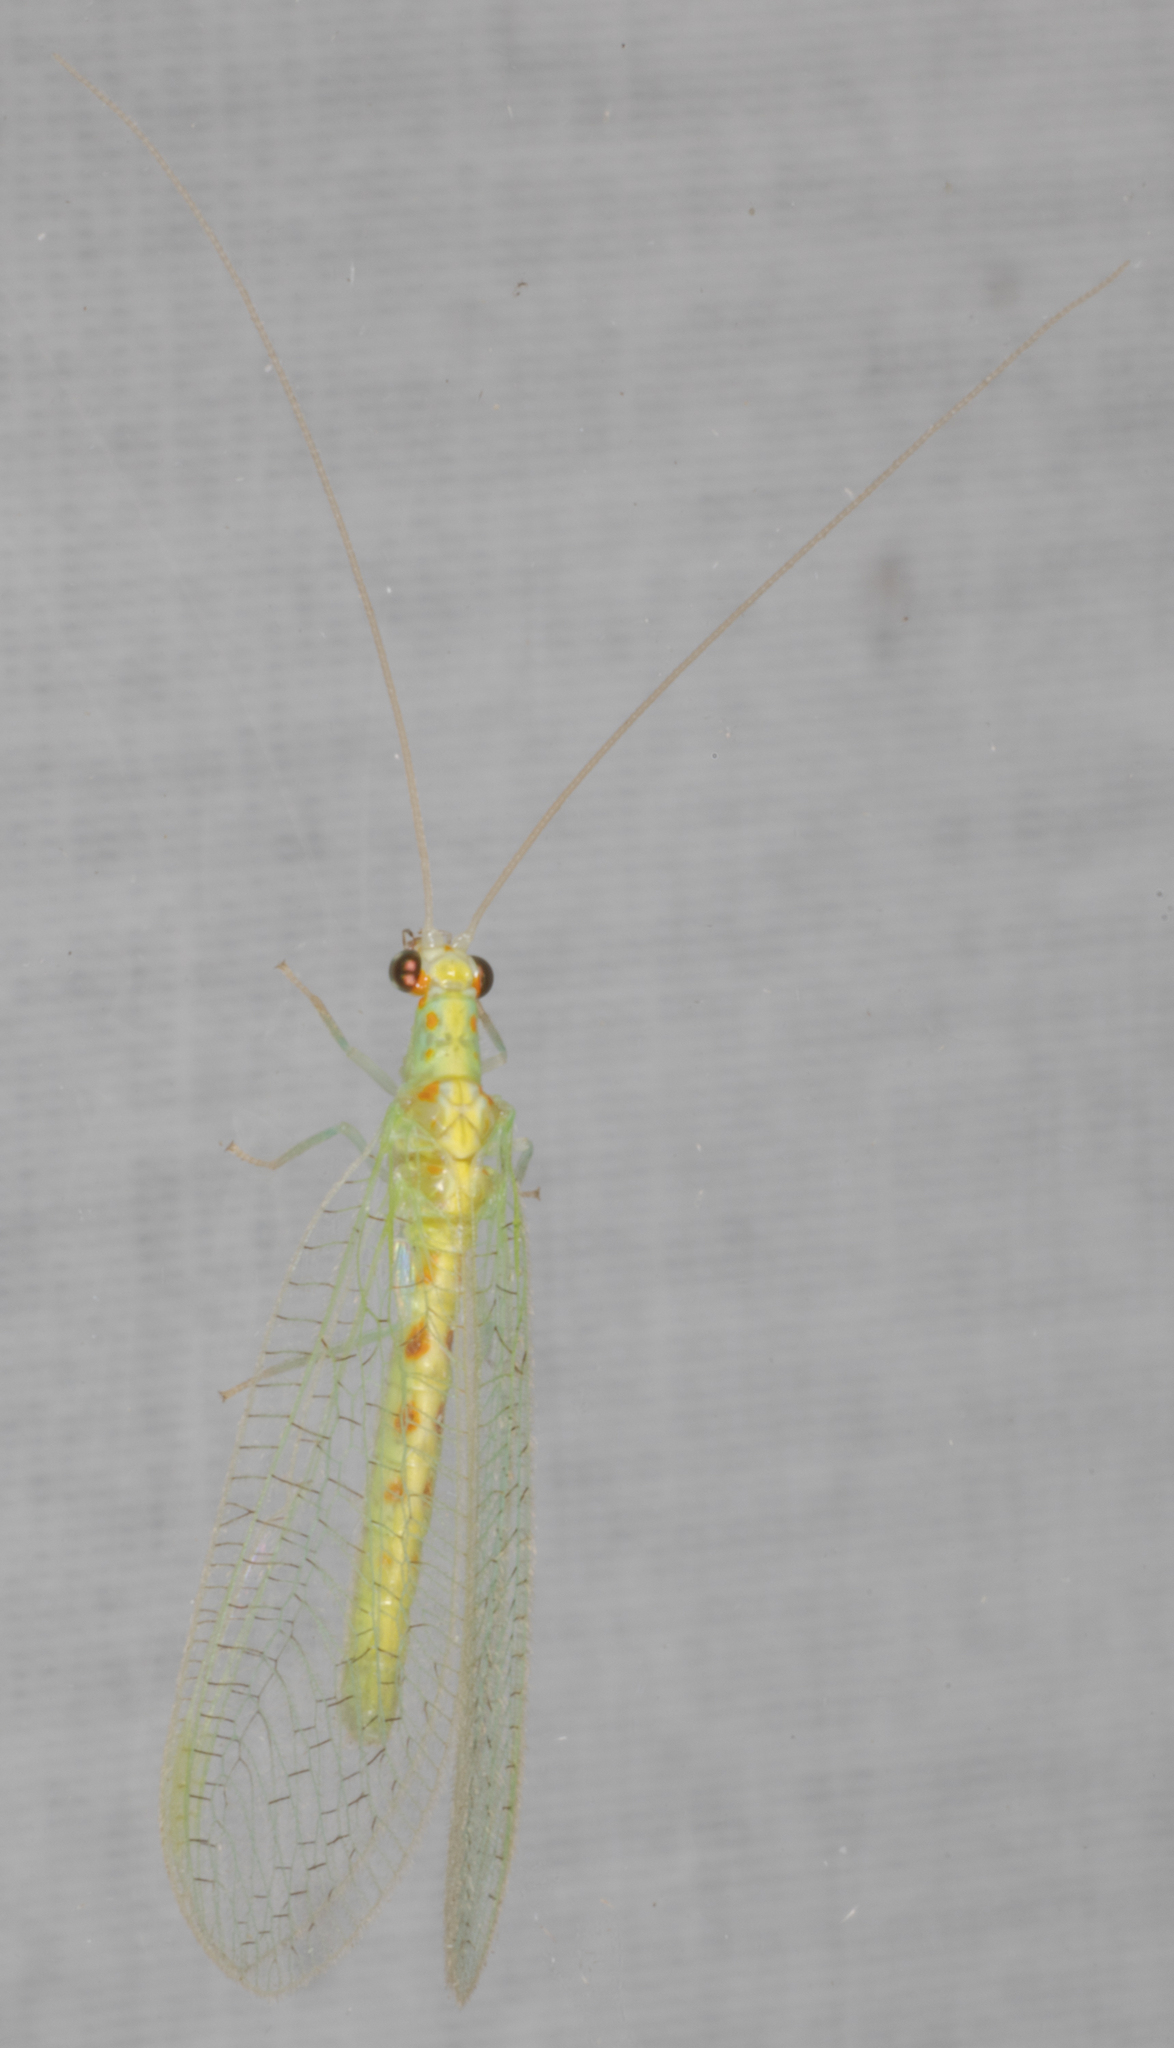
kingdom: Animalia
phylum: Arthropoda
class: Insecta
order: Neuroptera
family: Chrysopidae
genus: Chrysopa
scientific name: Chrysopa quadripunctata
